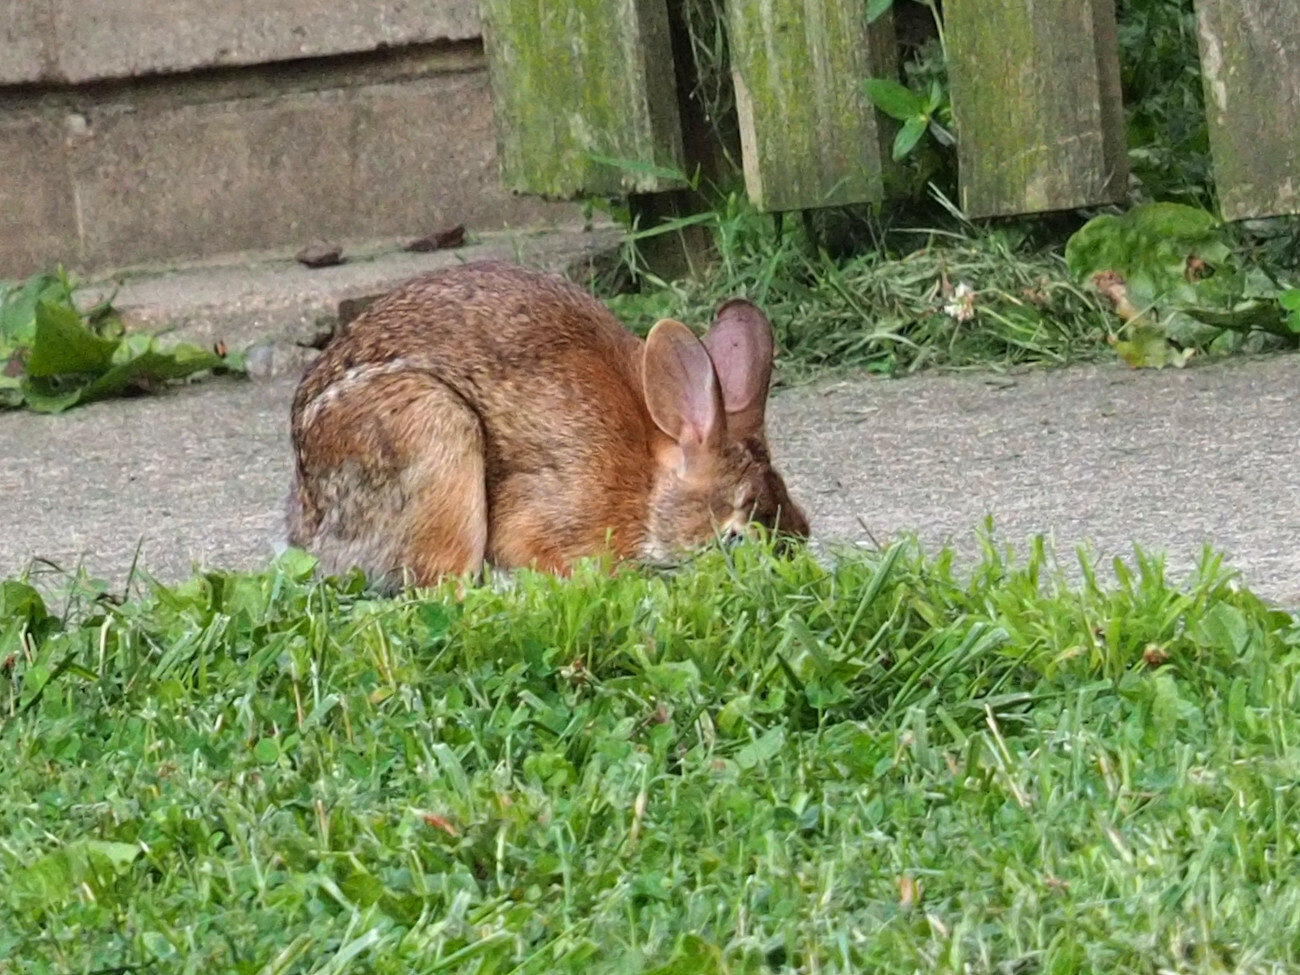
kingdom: Animalia
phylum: Chordata
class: Mammalia
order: Lagomorpha
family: Leporidae
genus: Sylvilagus
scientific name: Sylvilagus floridanus
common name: Eastern cottontail
